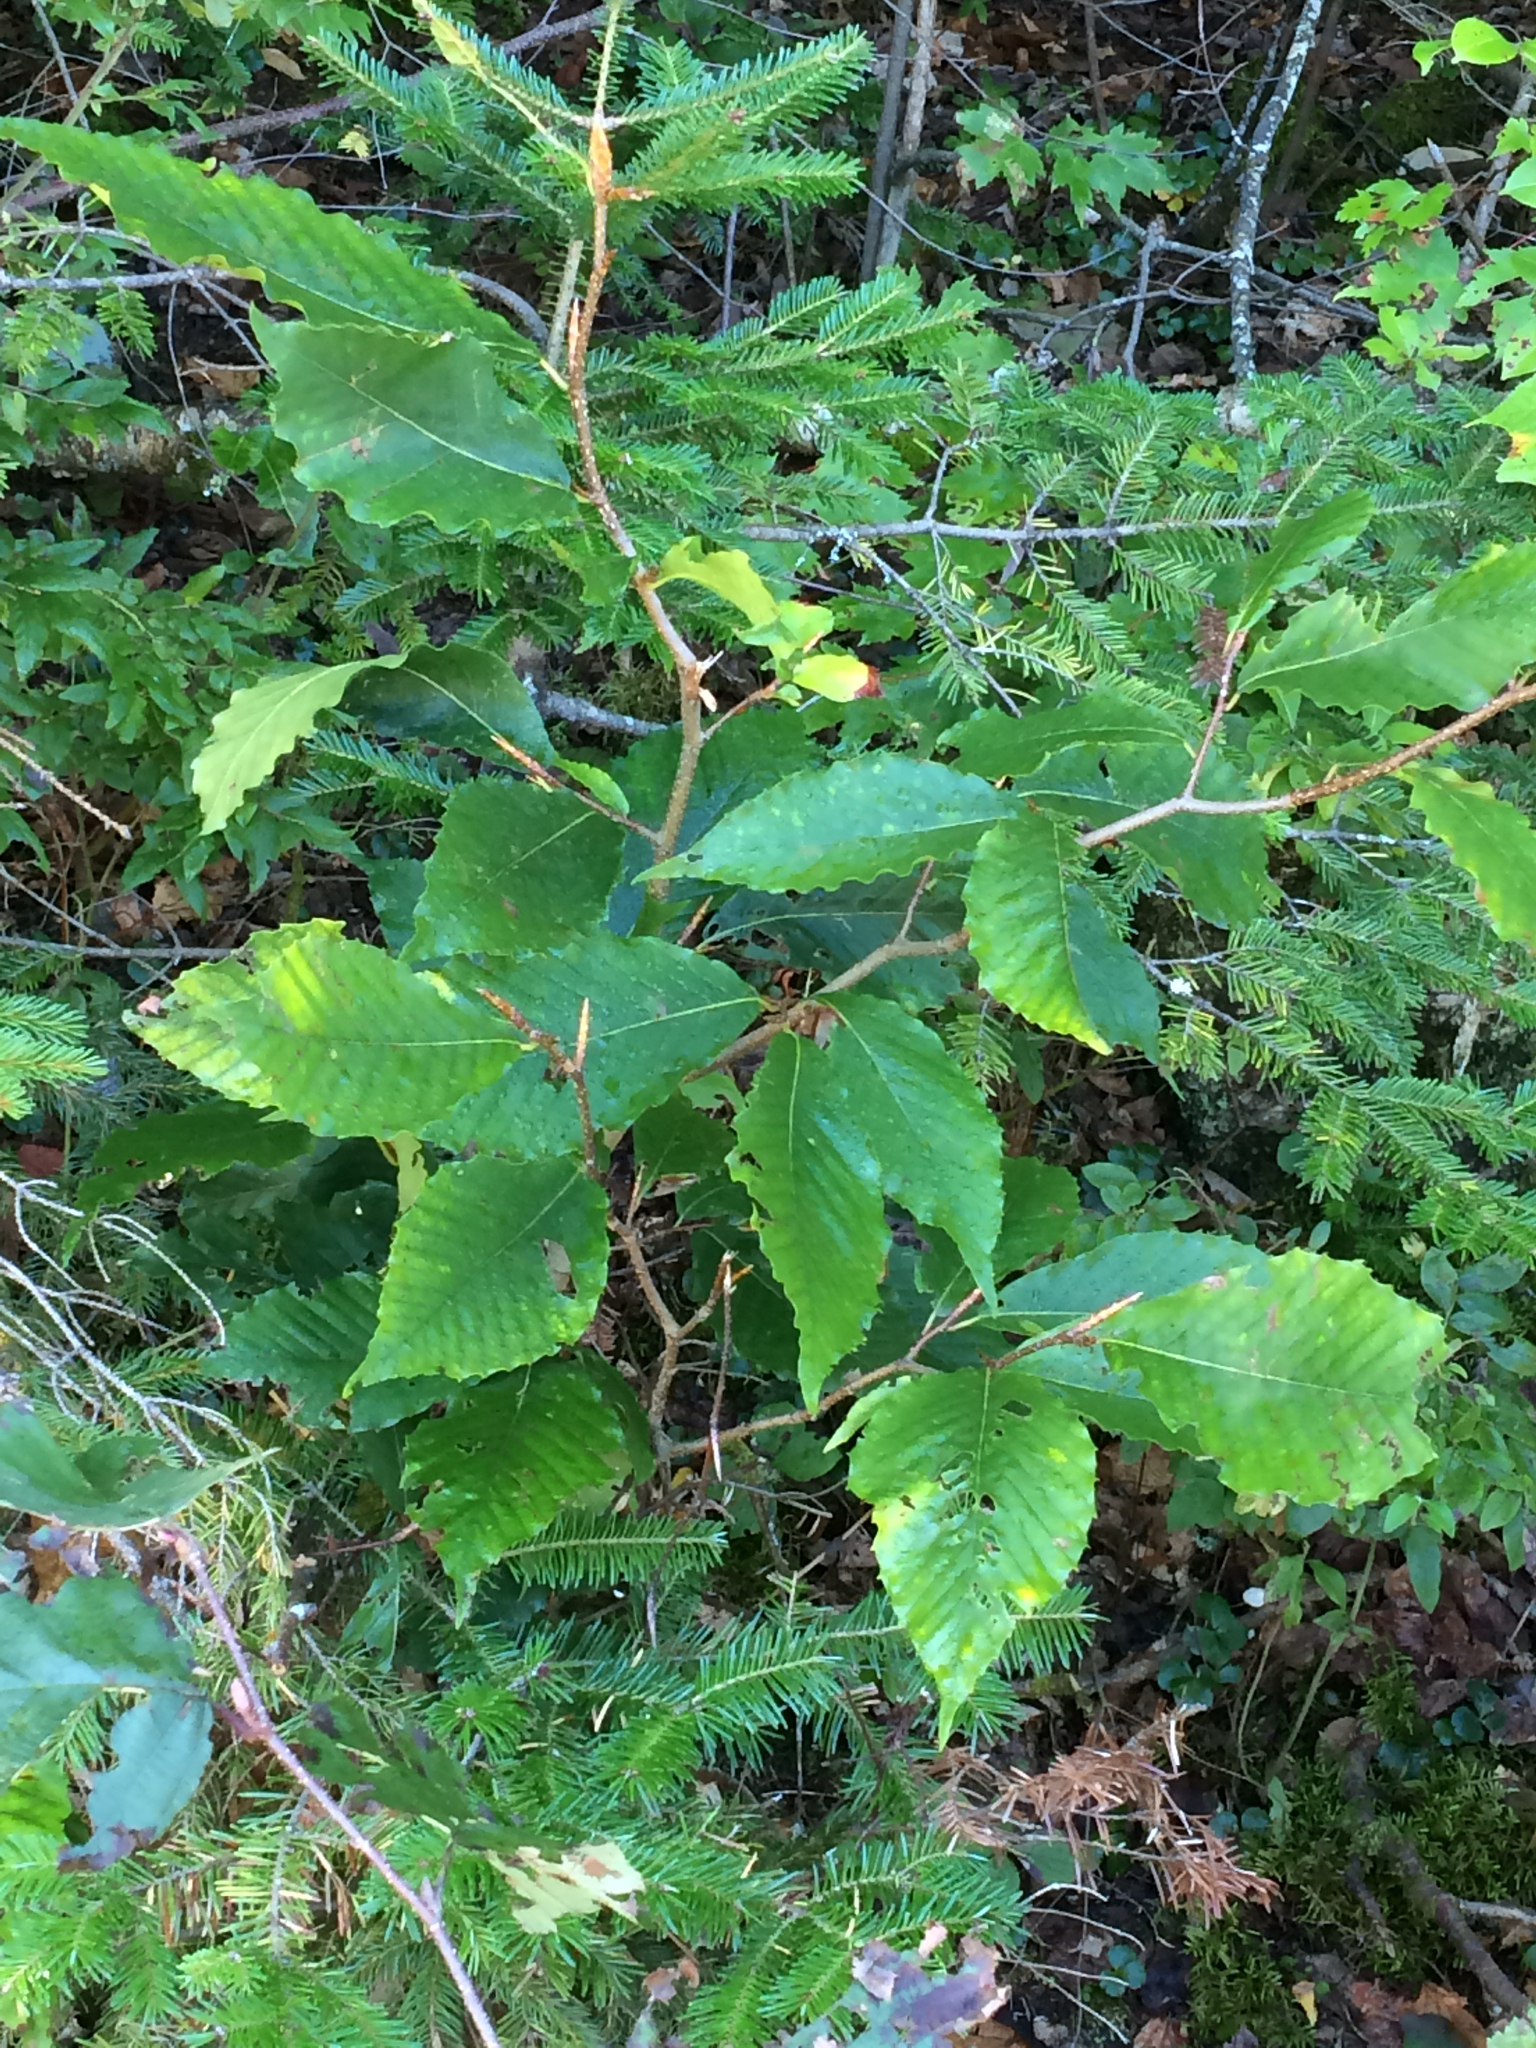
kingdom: Plantae
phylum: Tracheophyta
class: Magnoliopsida
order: Fagales
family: Fagaceae
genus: Fagus
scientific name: Fagus grandifolia
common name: American beech
